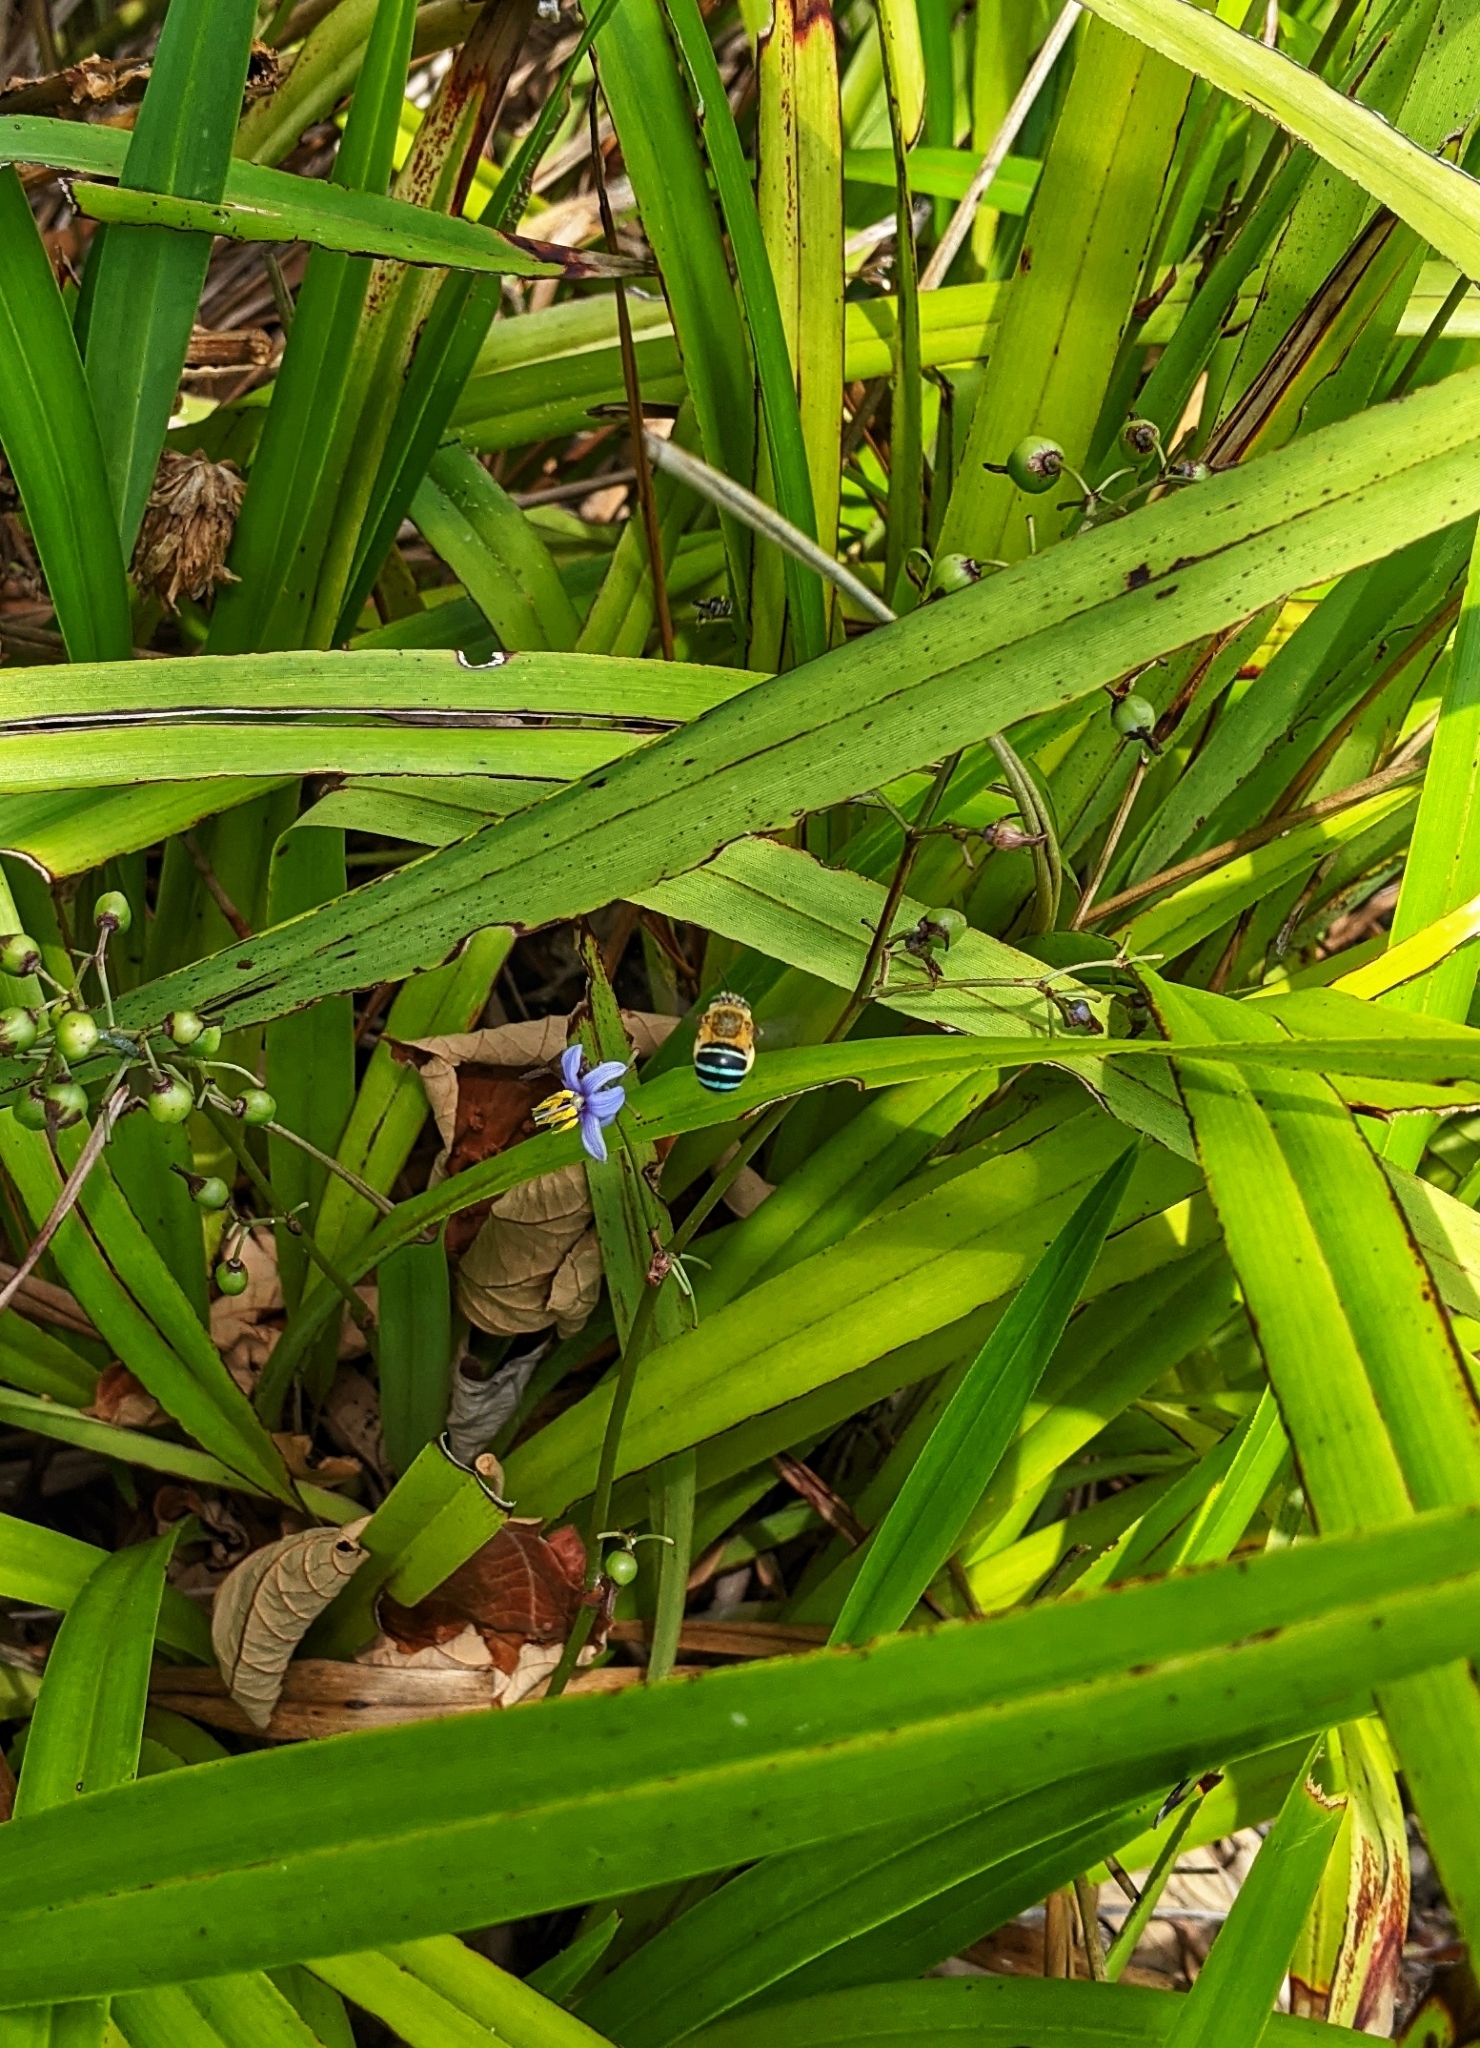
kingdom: Animalia
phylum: Arthropoda
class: Insecta
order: Hymenoptera
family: Apidae
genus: Amegilla
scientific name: Amegilla cingulata
